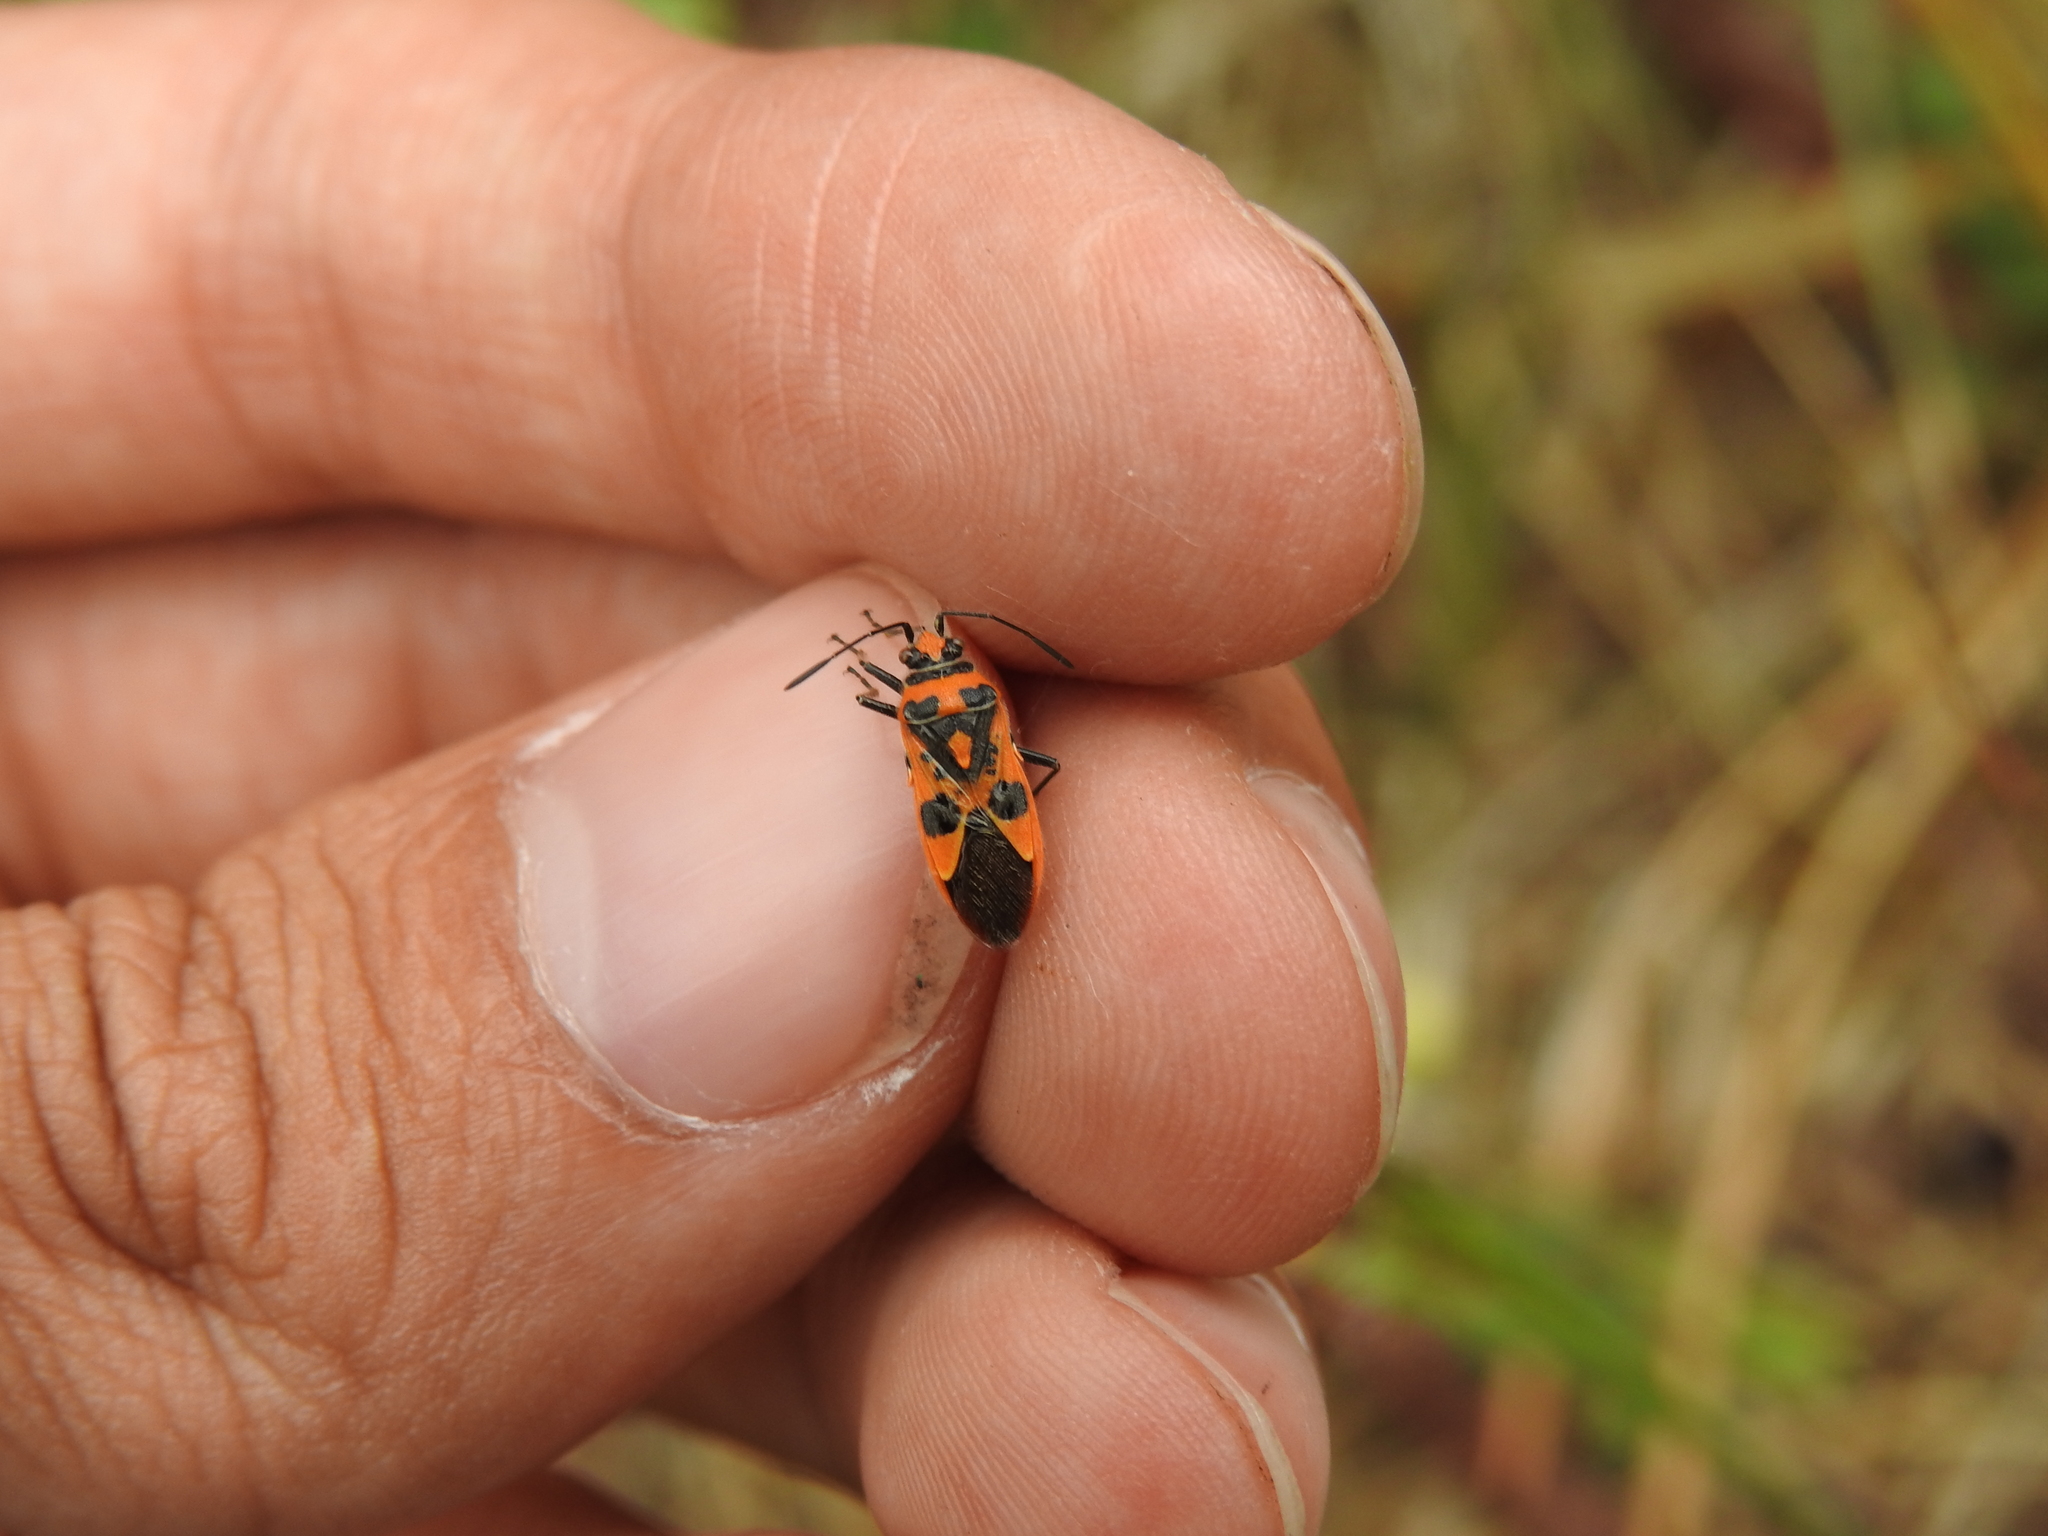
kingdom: Animalia
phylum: Arthropoda
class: Insecta
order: Hemiptera
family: Rhopalidae
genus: Corizus
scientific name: Corizus hyoscyami
